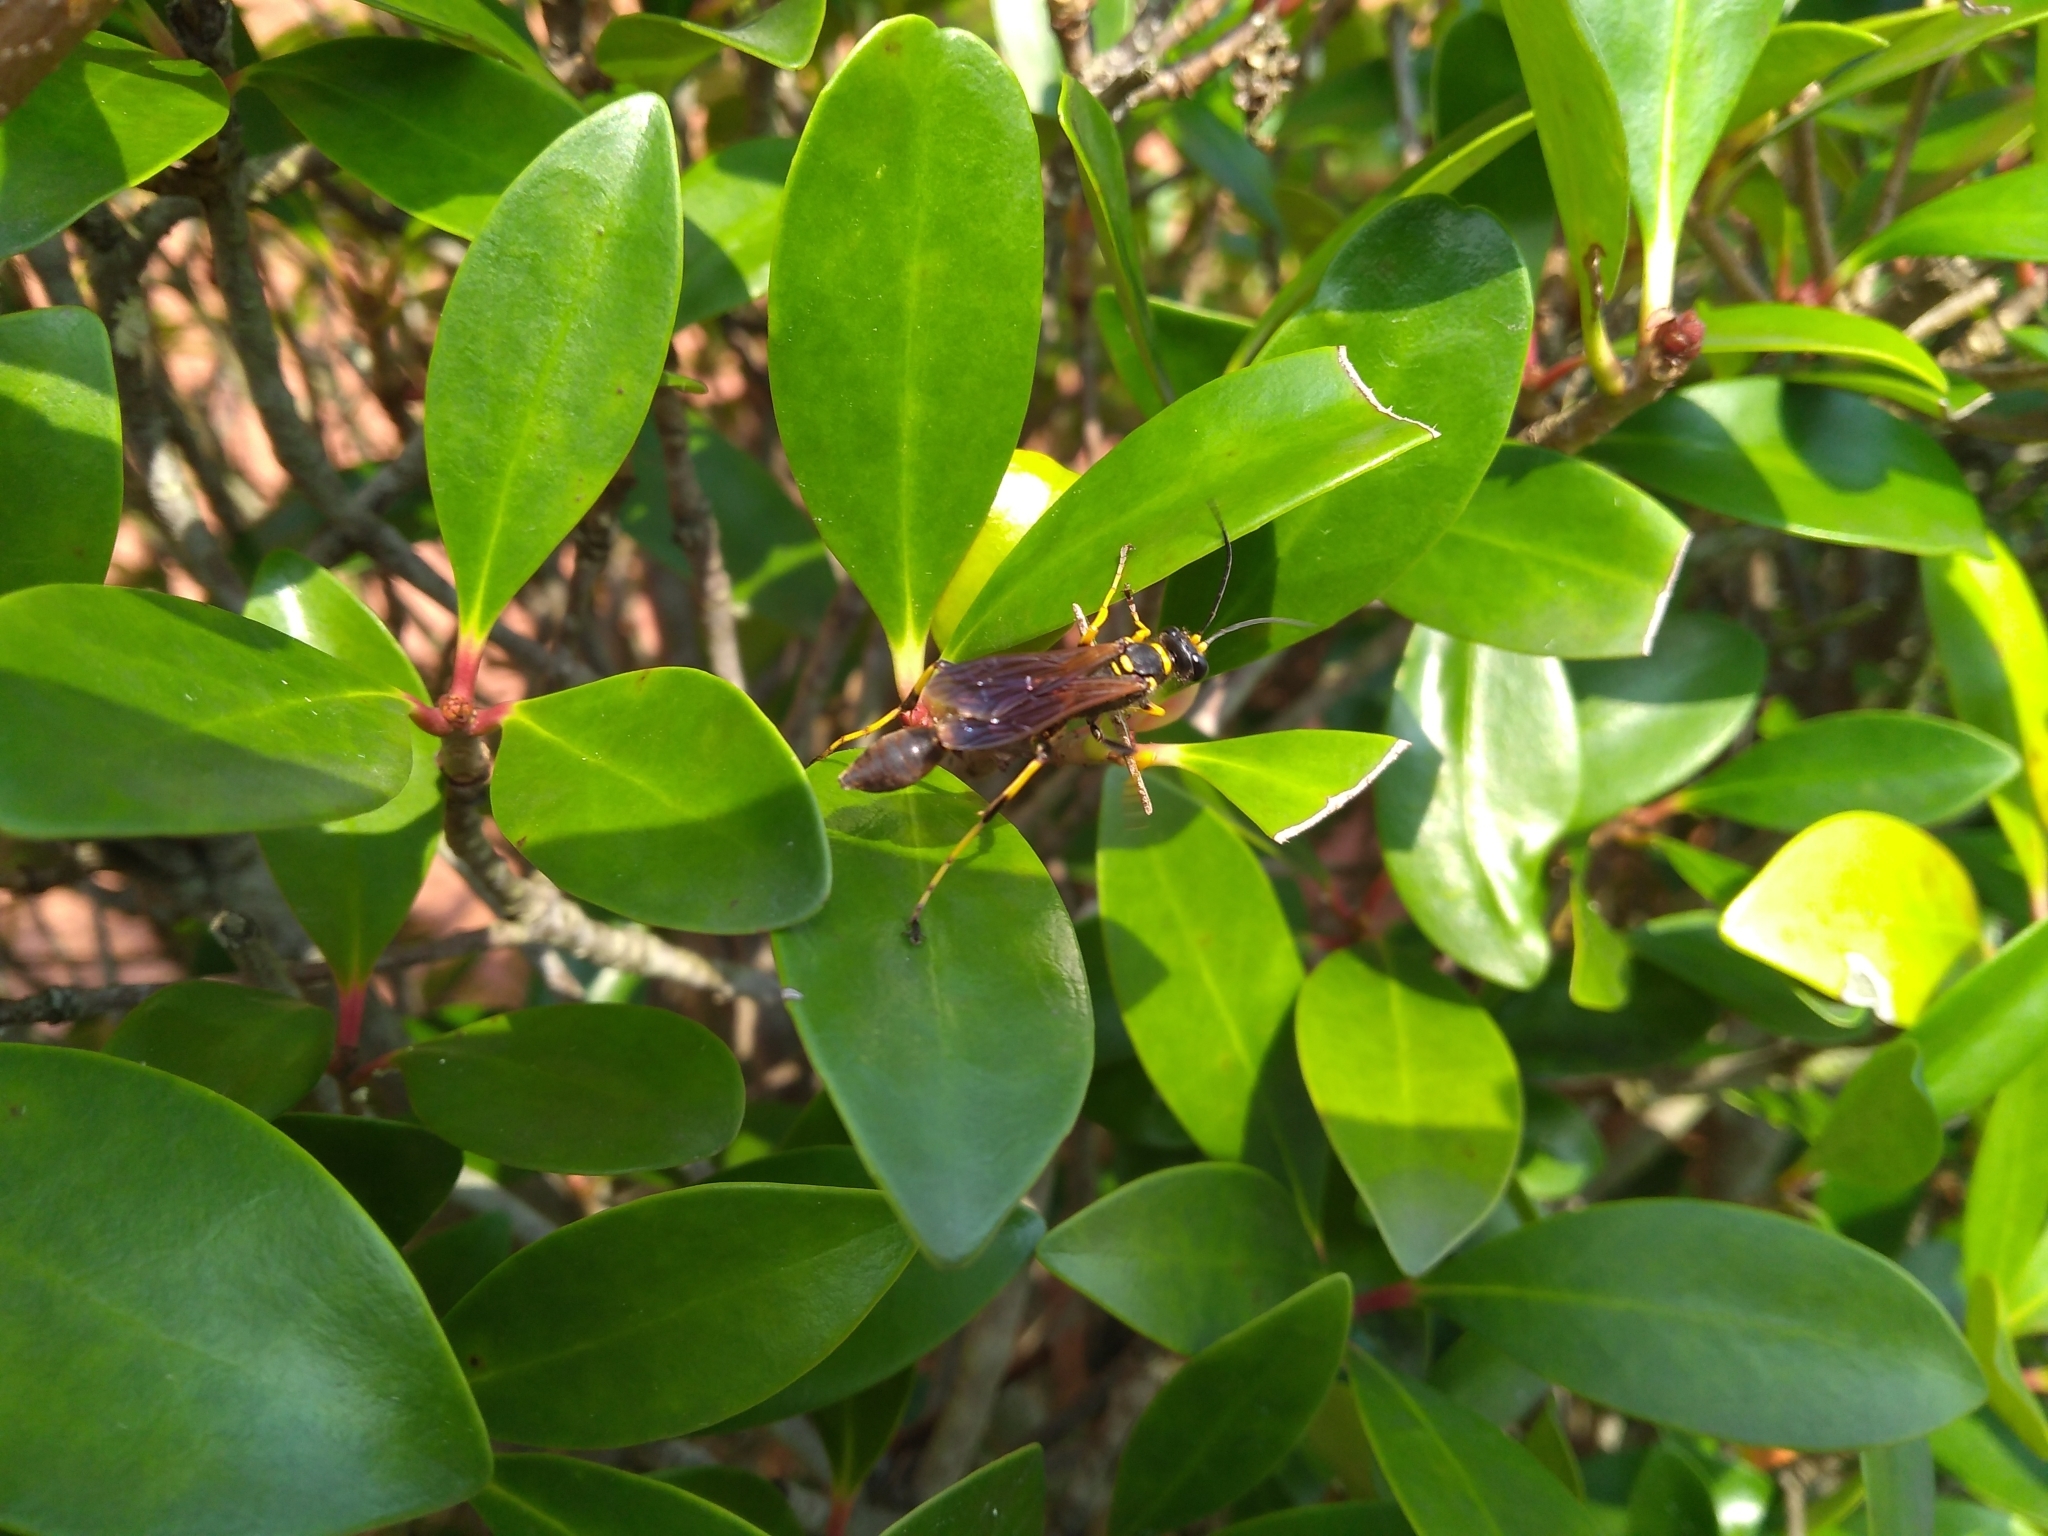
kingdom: Animalia
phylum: Arthropoda
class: Insecta
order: Hymenoptera
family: Sphecidae
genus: Sceliphron
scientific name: Sceliphron caementarium
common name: Mud dauber
